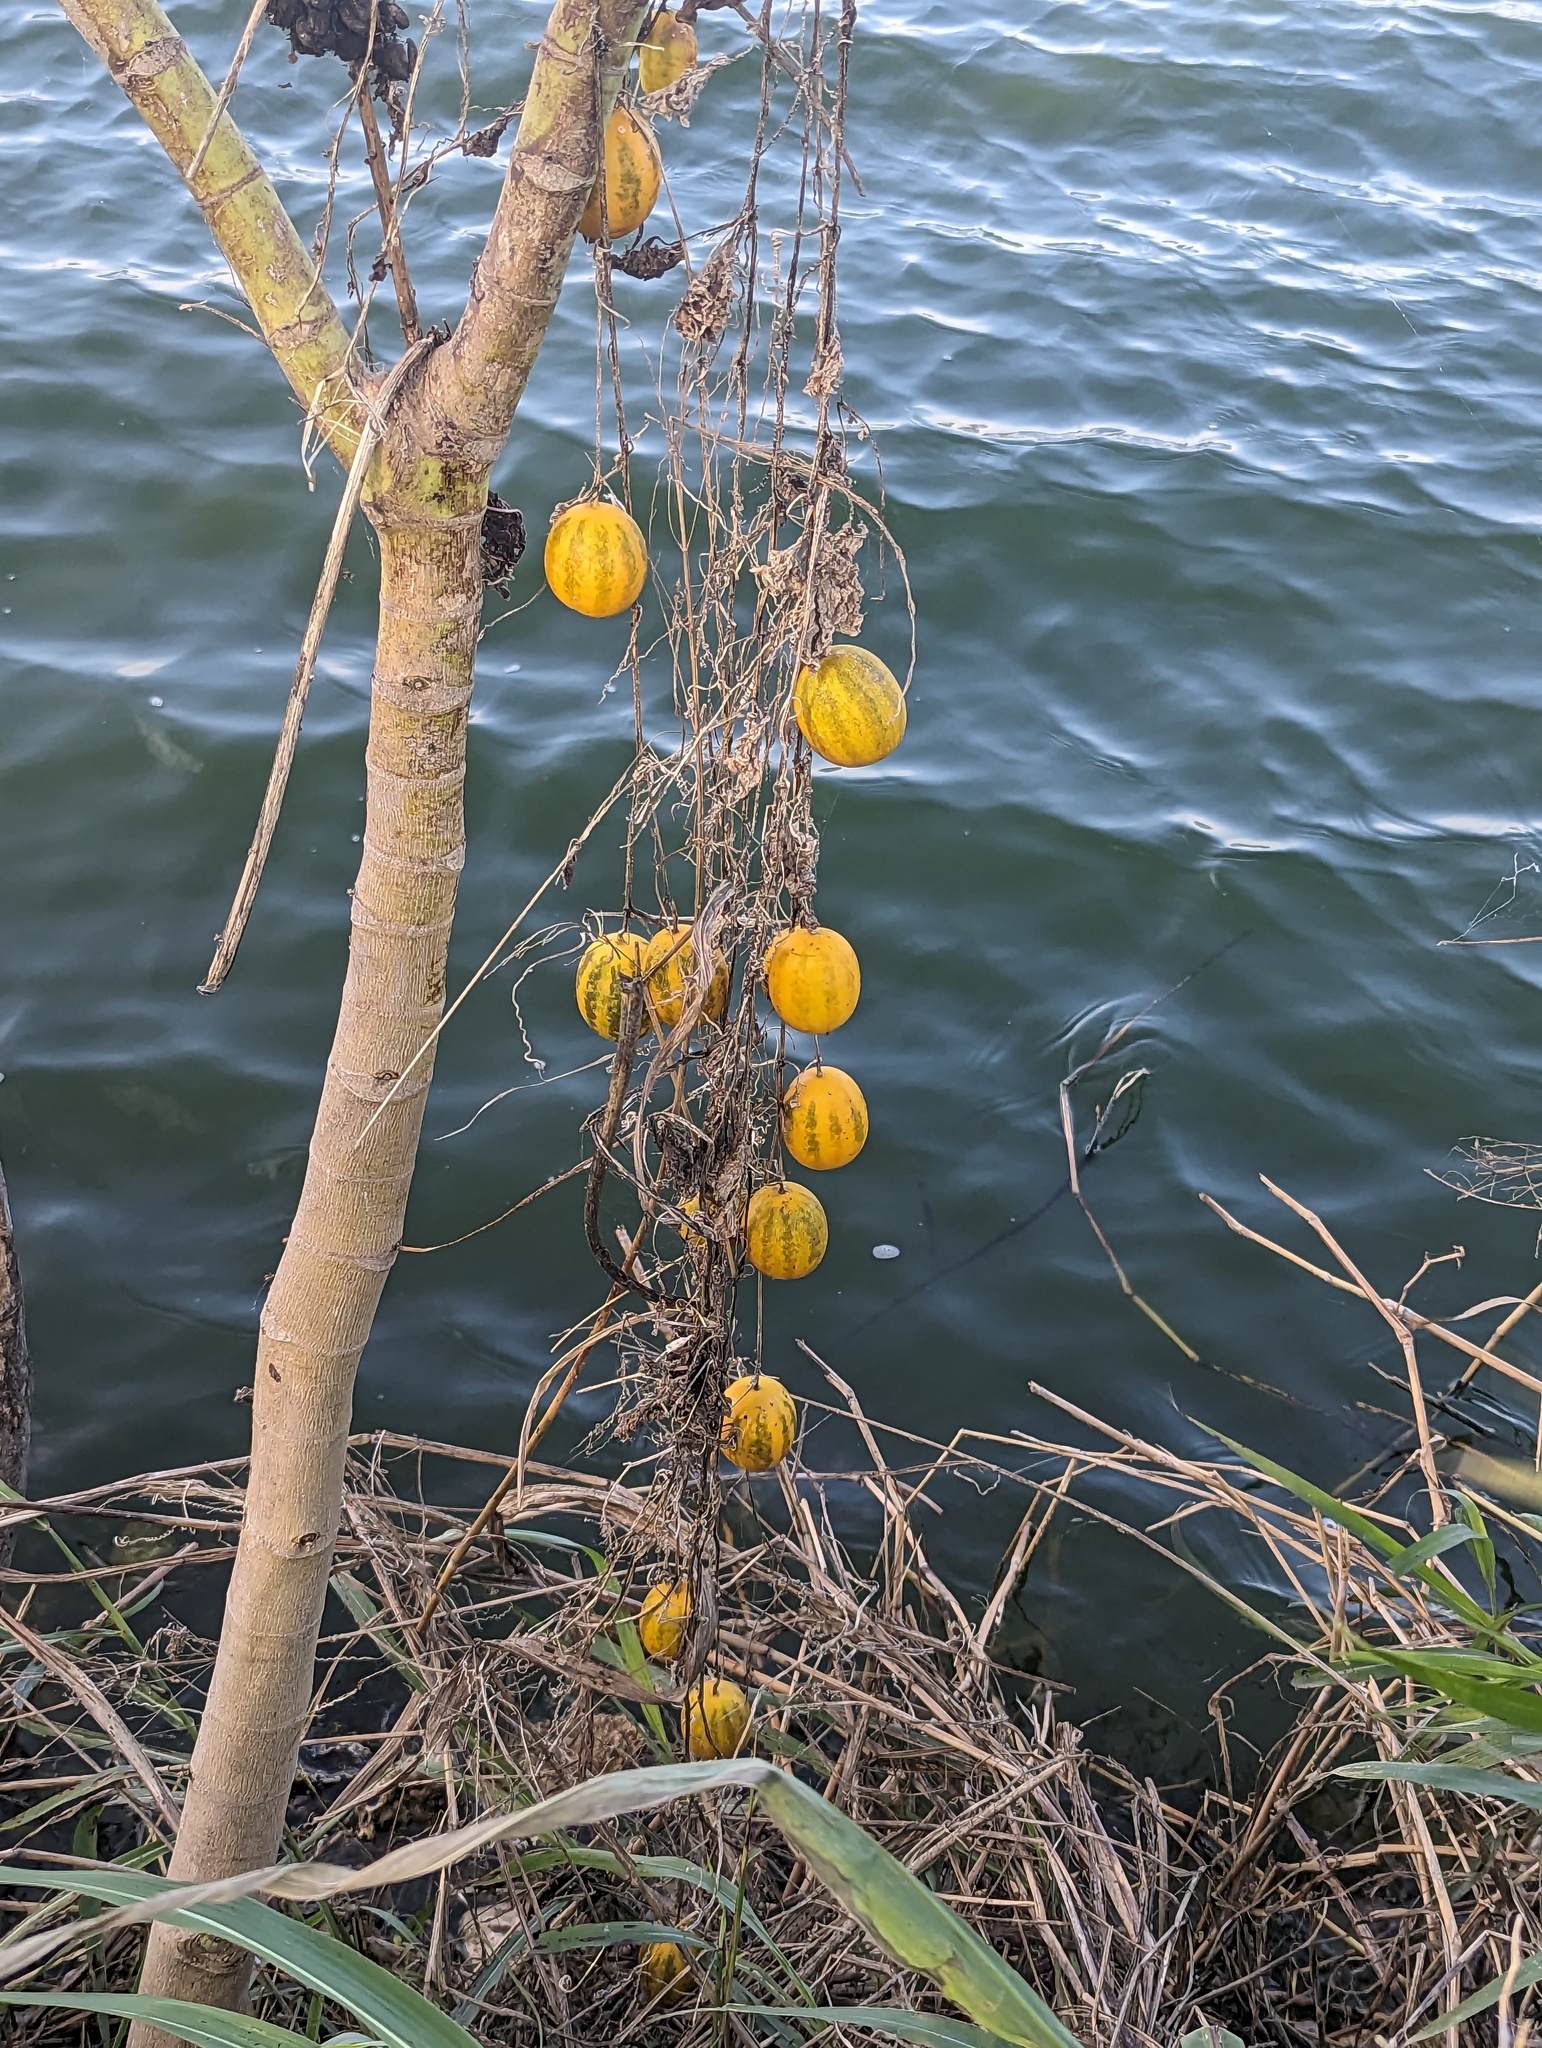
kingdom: Plantae
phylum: Tracheophyta
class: Magnoliopsida
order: Cucurbitales
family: Cucurbitaceae
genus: Cucumis
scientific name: Cucumis melo
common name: Melon
